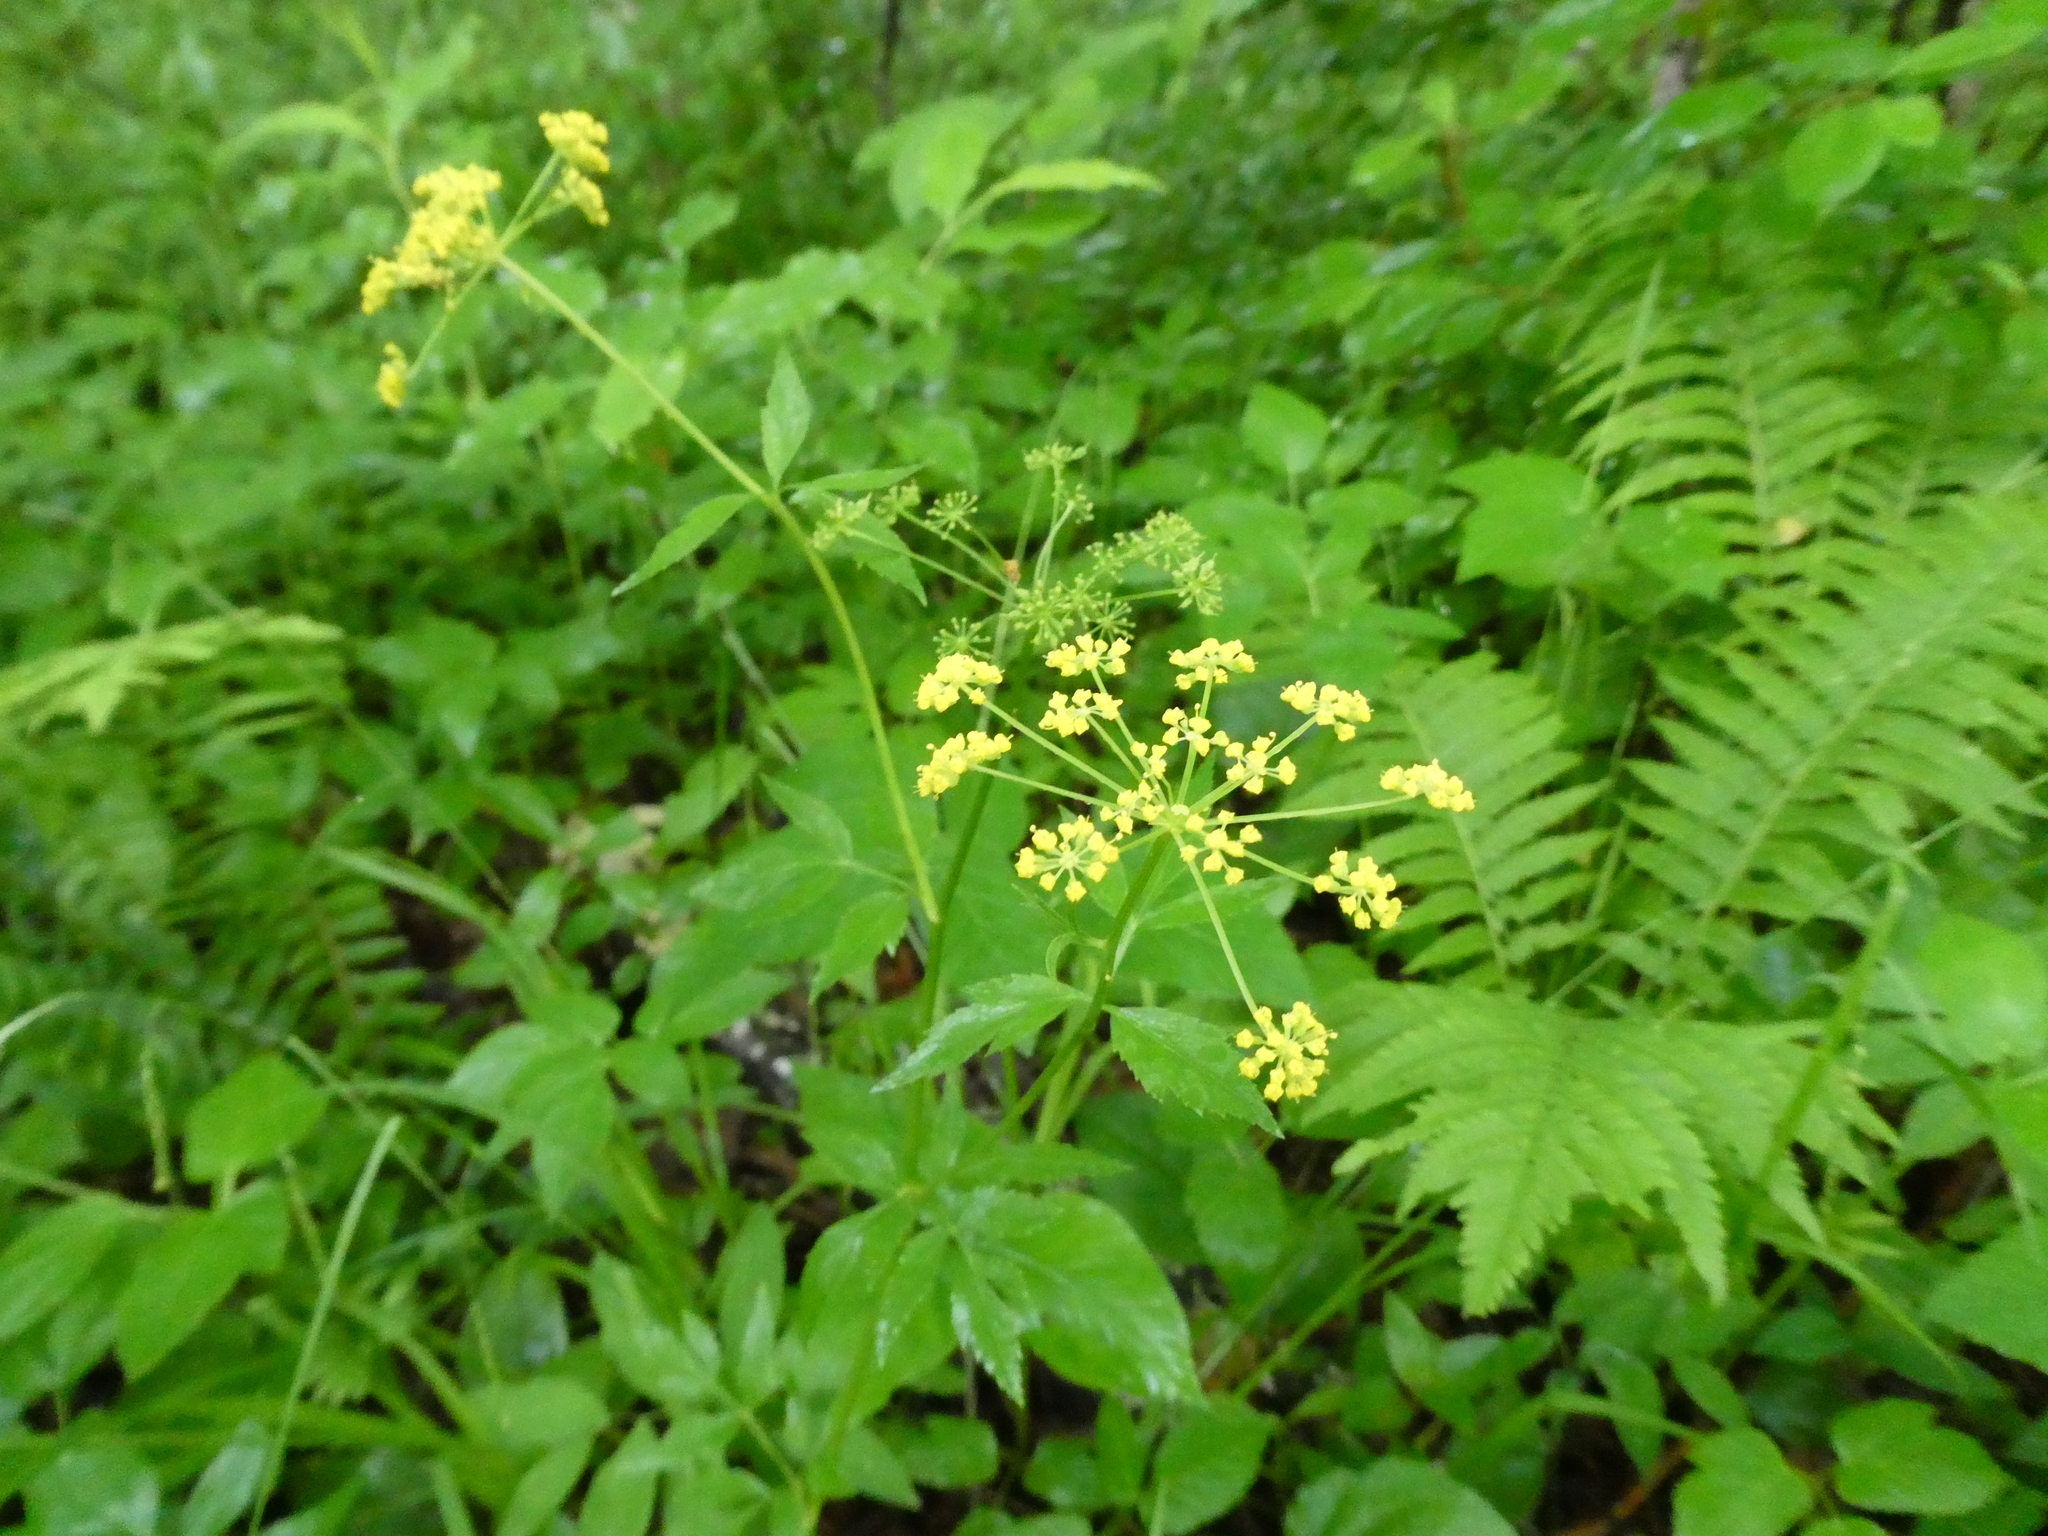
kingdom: Plantae
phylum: Tracheophyta
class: Magnoliopsida
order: Apiales
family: Apiaceae
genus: Zizia
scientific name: Zizia aurea
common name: Golden alexanders
